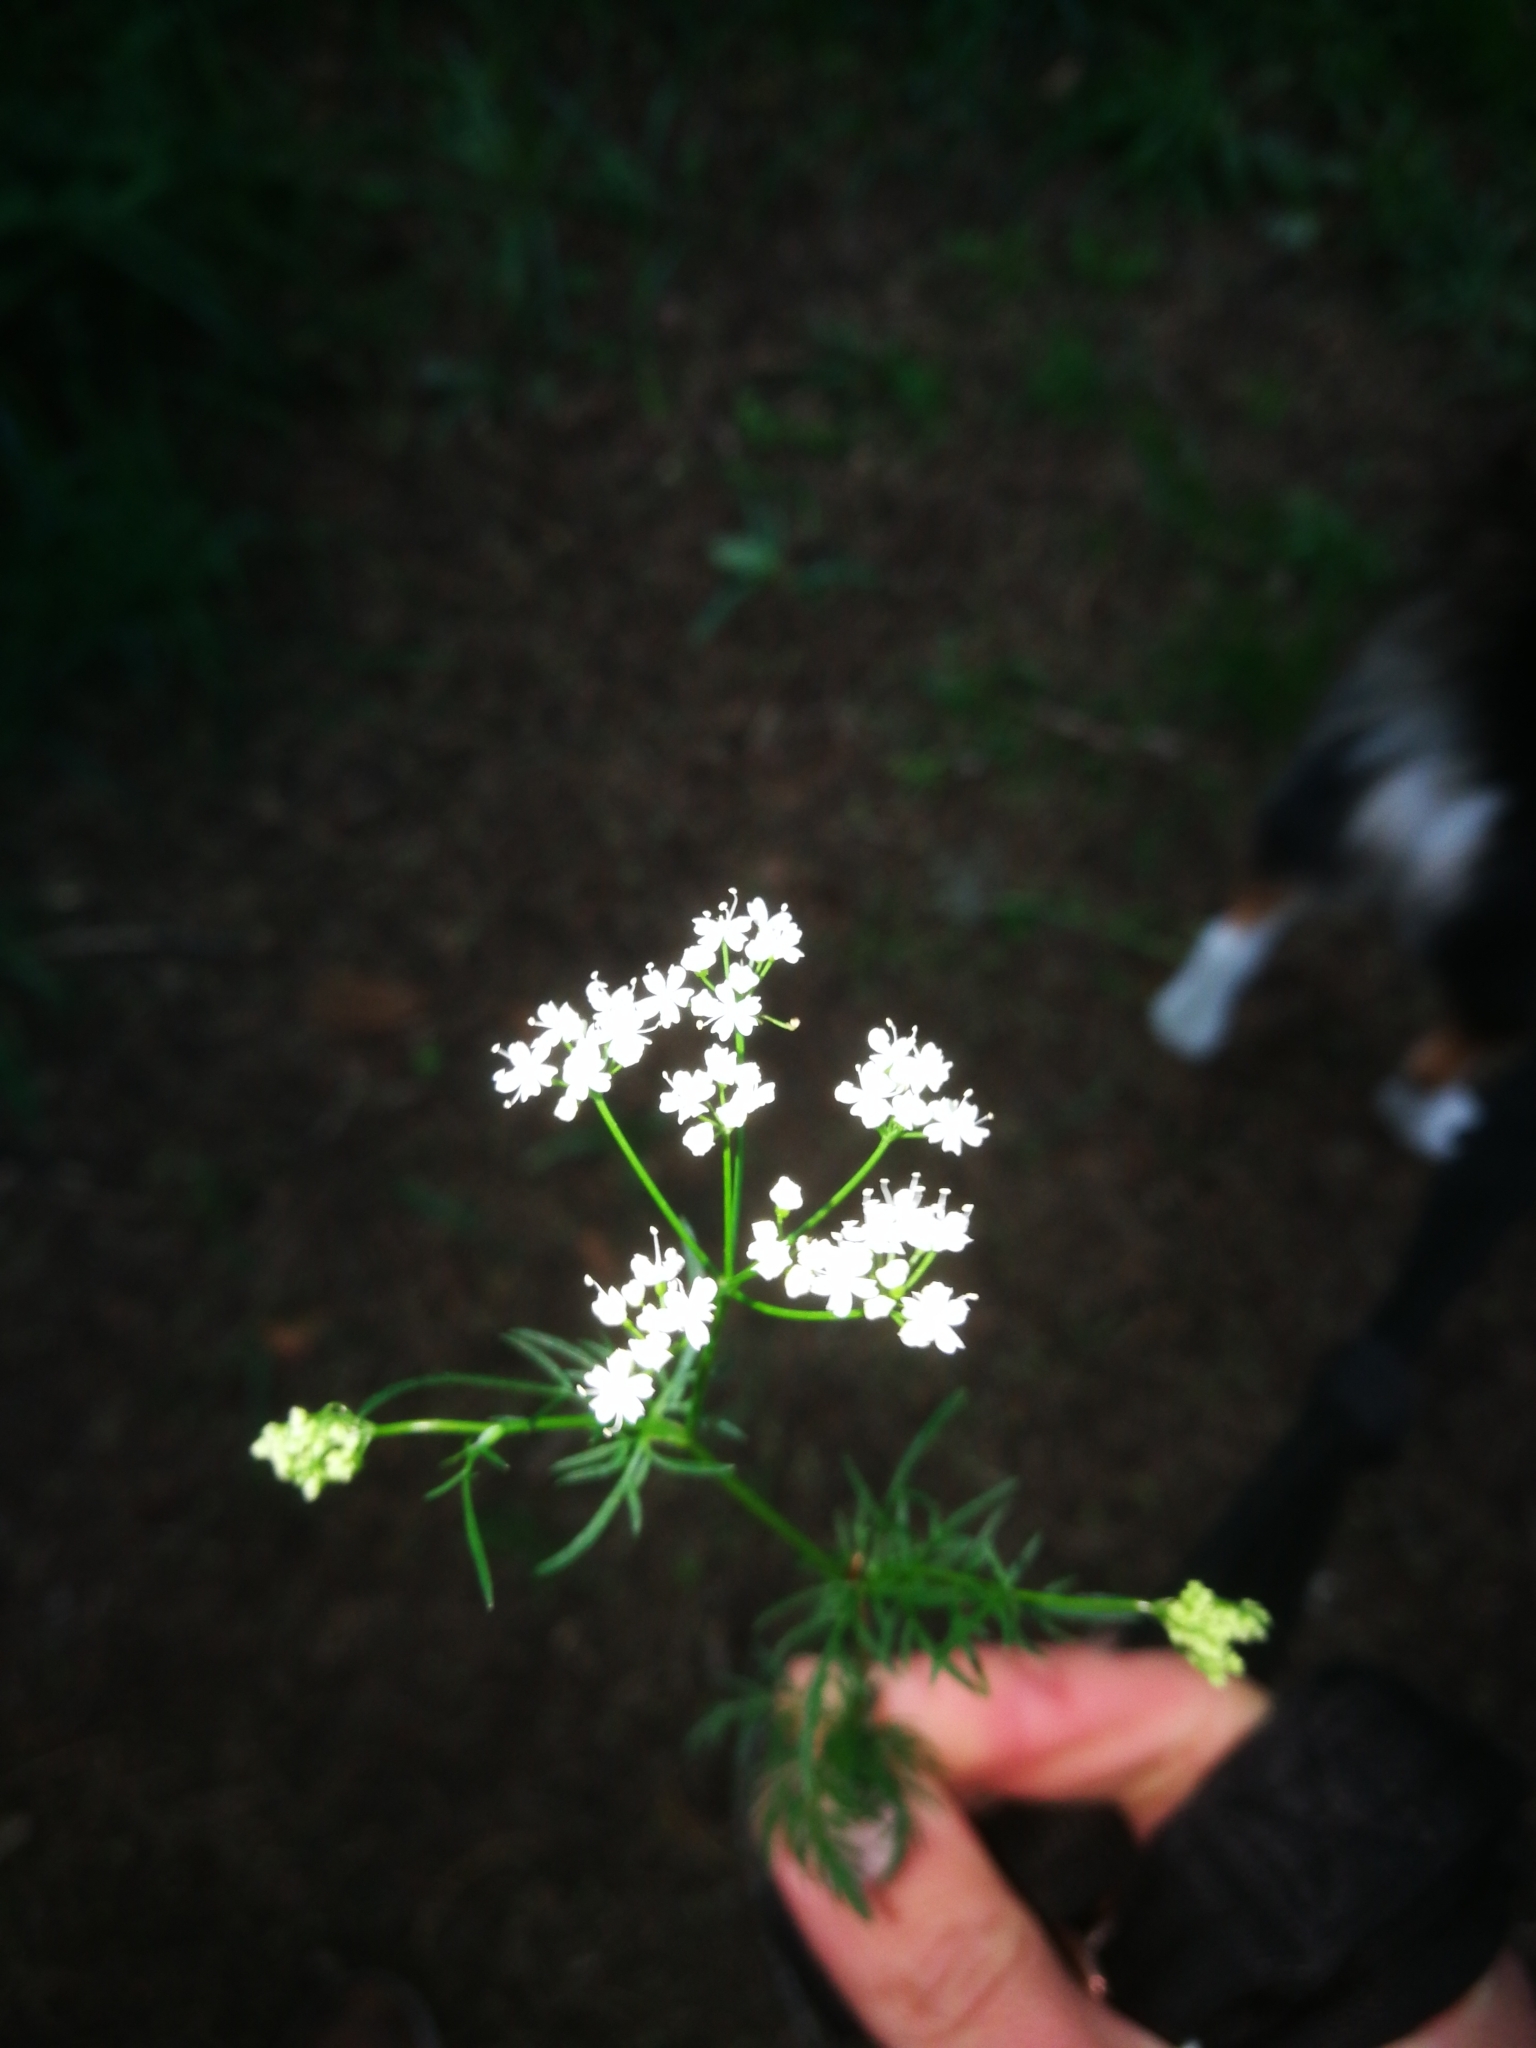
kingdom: Plantae
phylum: Tracheophyta
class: Magnoliopsida
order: Apiales
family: Apiaceae
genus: Conopodium
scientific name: Conopodium majus
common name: Pignut
